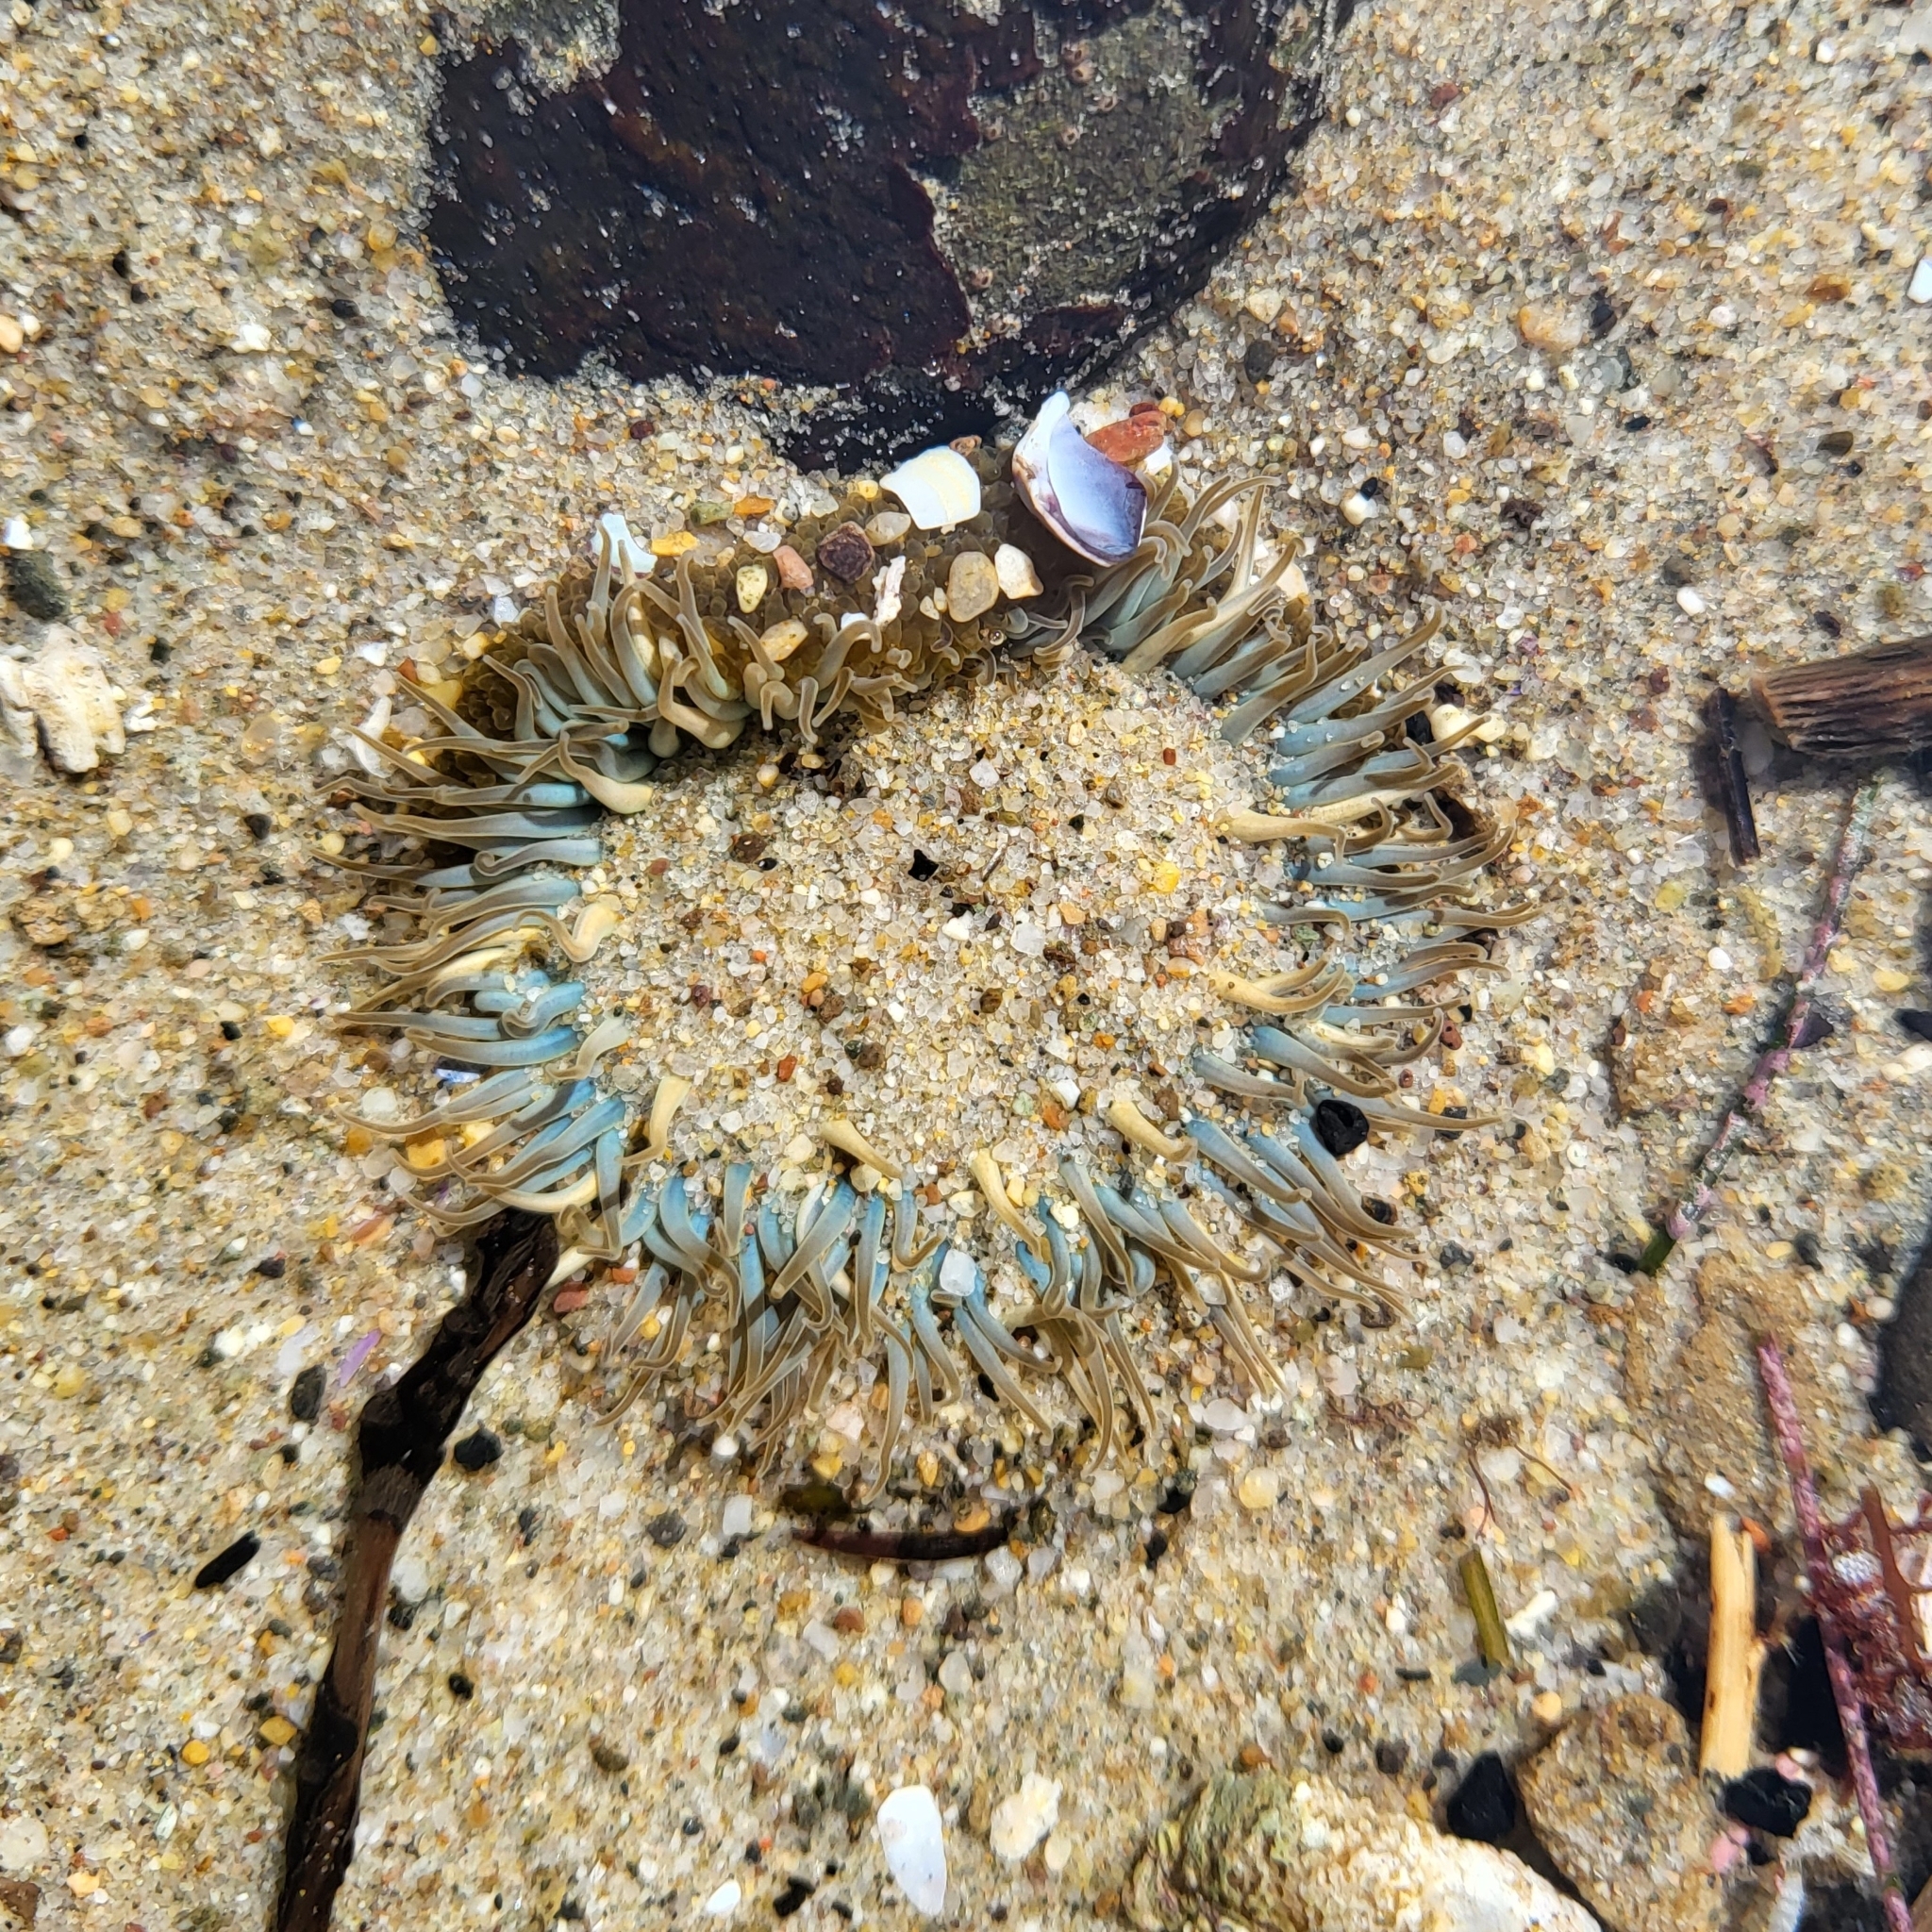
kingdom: Animalia
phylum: Cnidaria
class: Anthozoa
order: Actiniaria
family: Actiniidae
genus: Anthopleura
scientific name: Anthopleura sola
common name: Sun anemone
